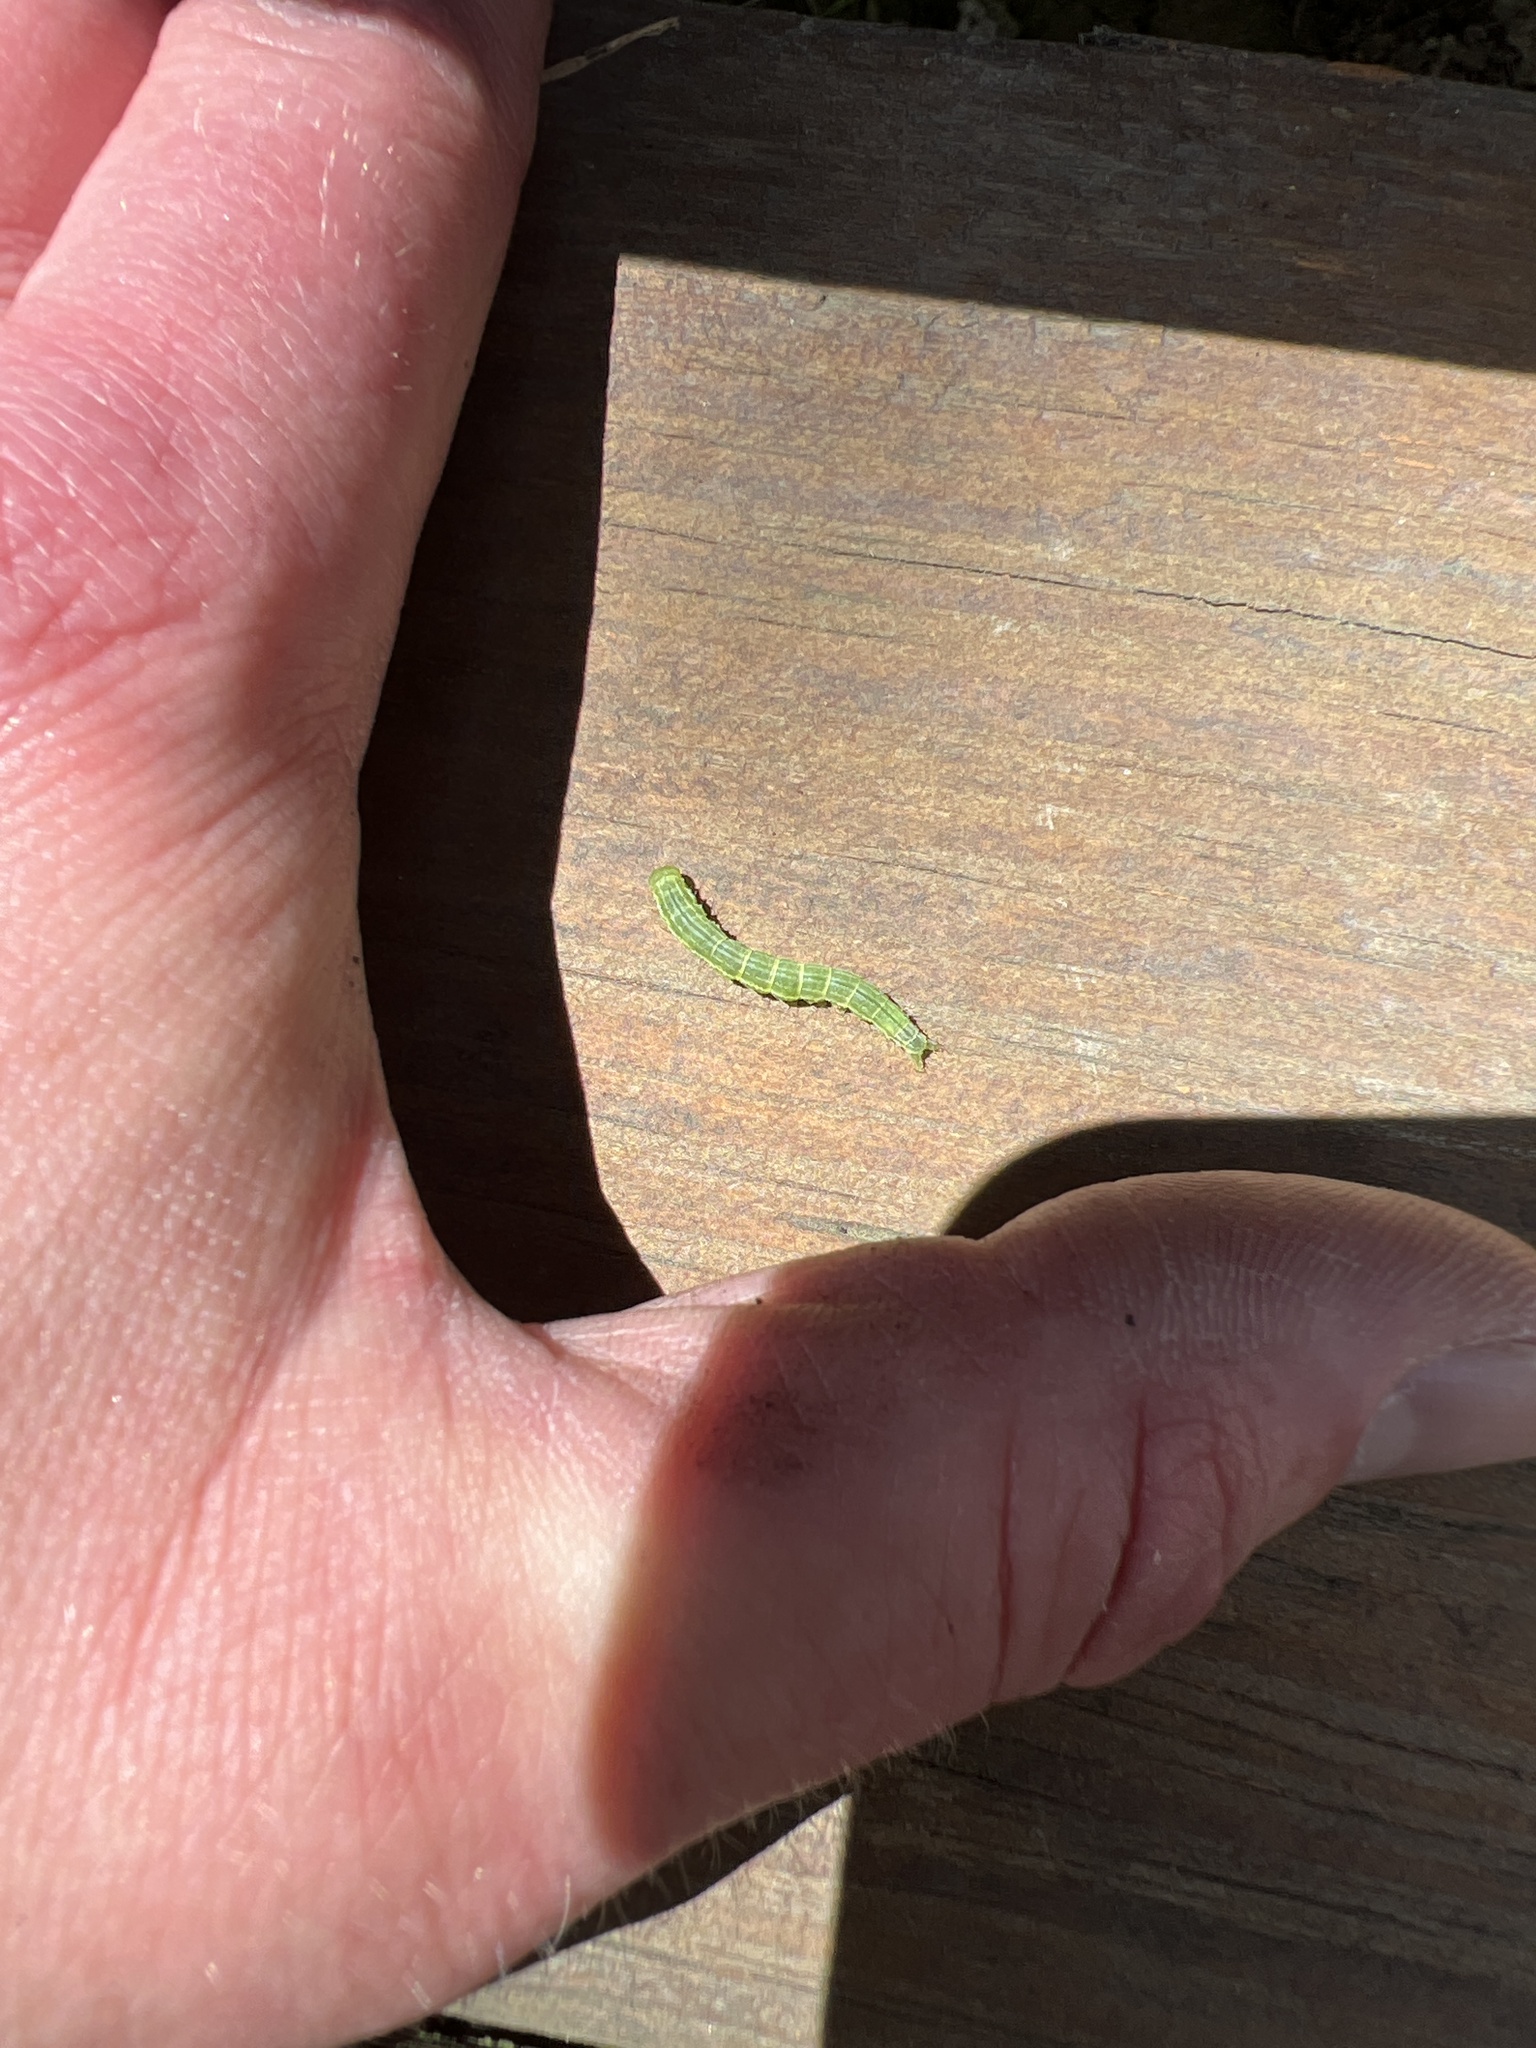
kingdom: Animalia
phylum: Arthropoda
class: Insecta
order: Lepidoptera
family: Noctuidae
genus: Loscopia
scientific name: Loscopia velata
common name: Veiled ear moth
